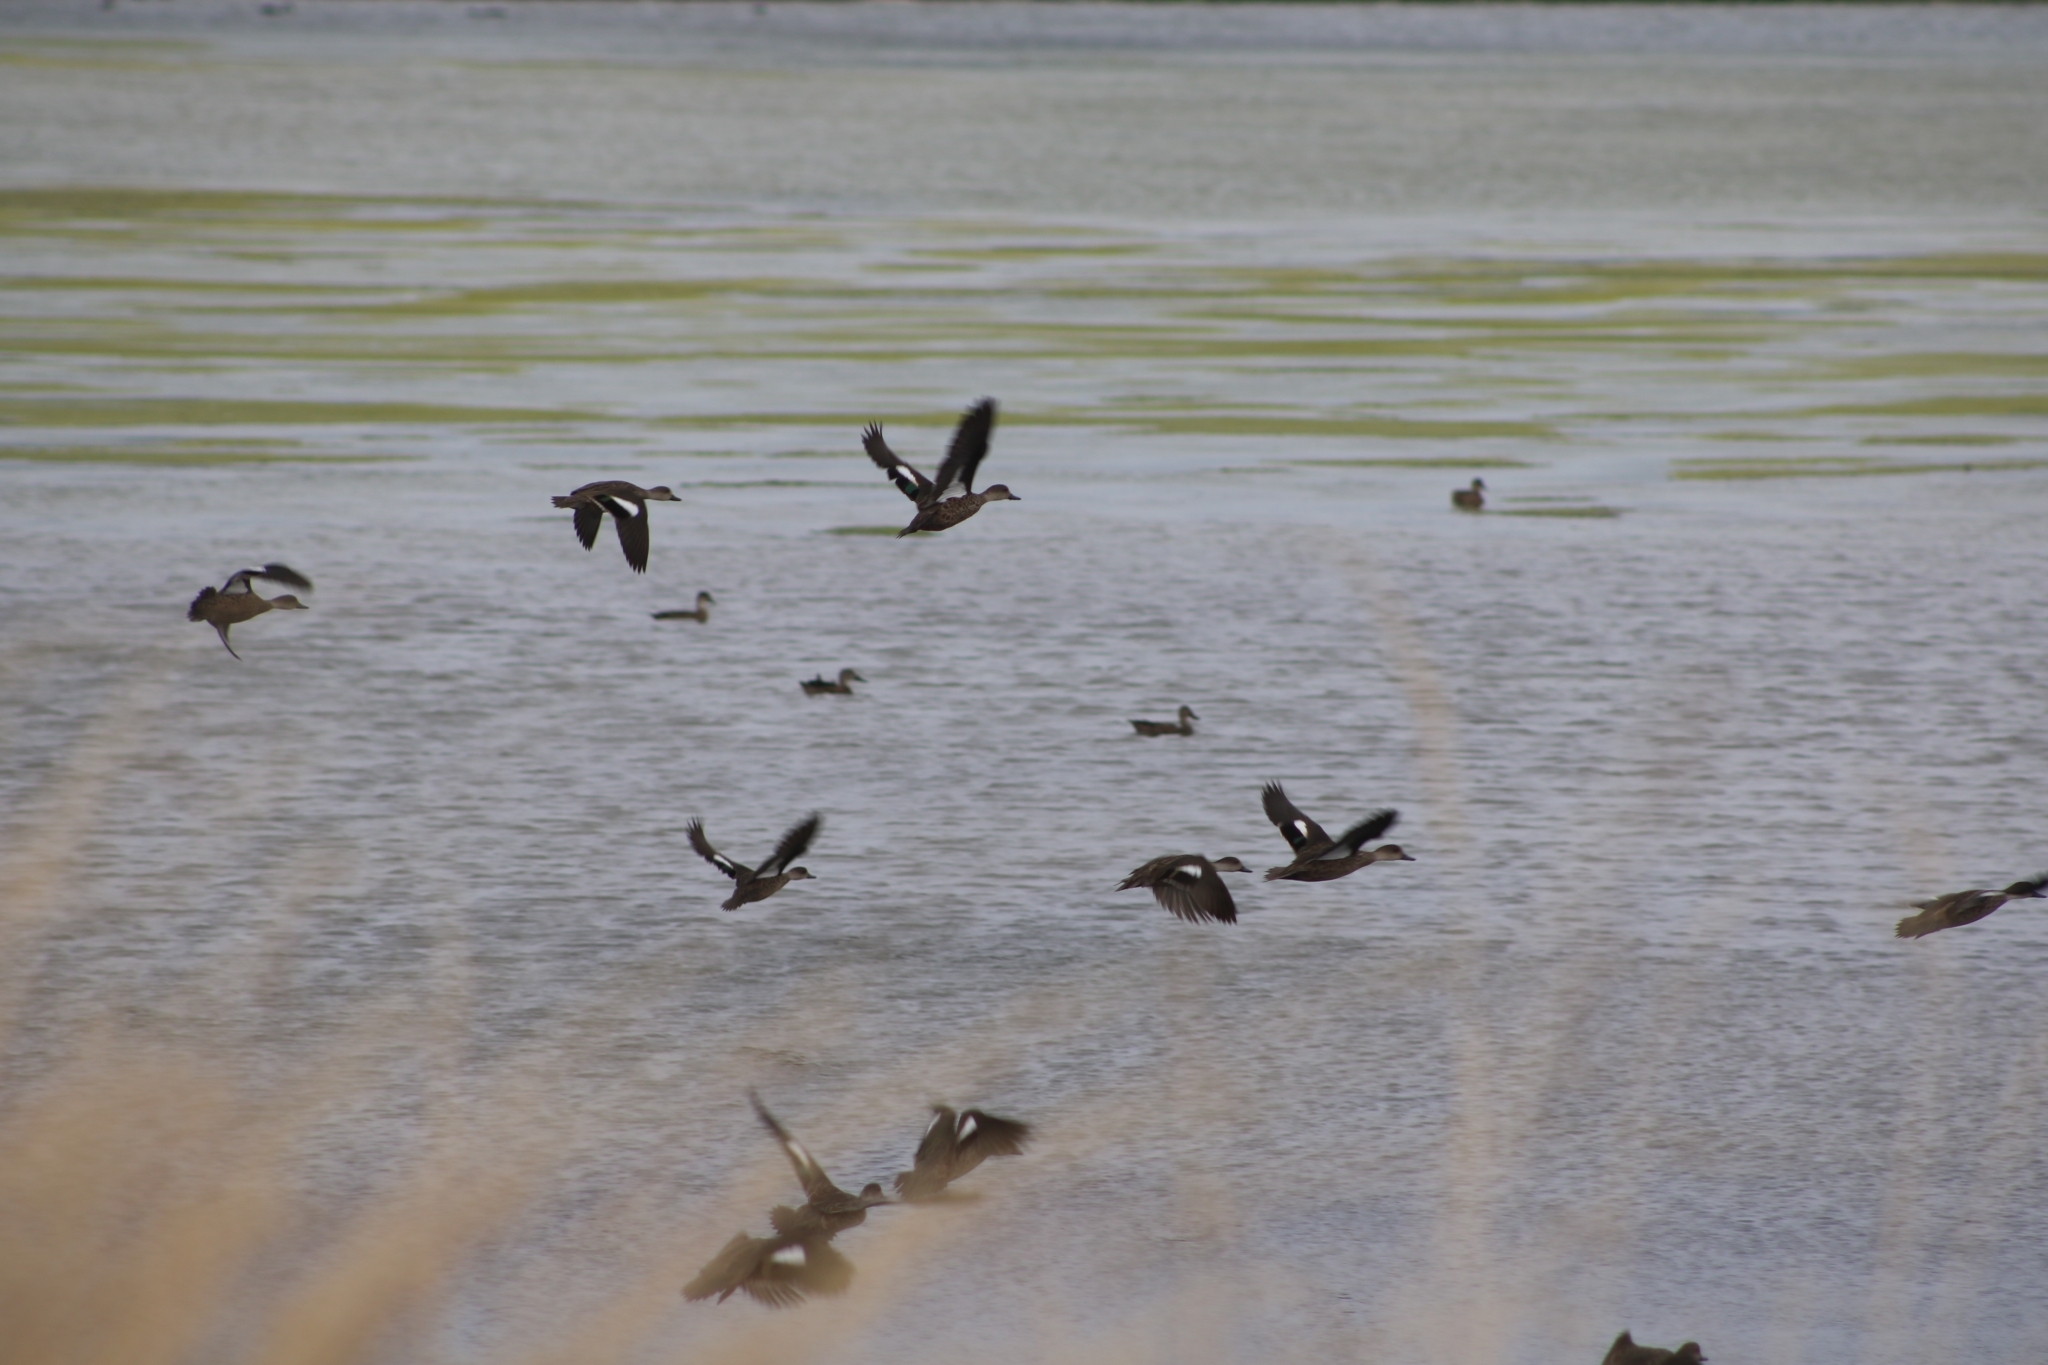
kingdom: Animalia
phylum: Chordata
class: Aves
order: Anseriformes
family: Anatidae
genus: Anas
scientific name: Anas gracilis
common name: Grey teal
